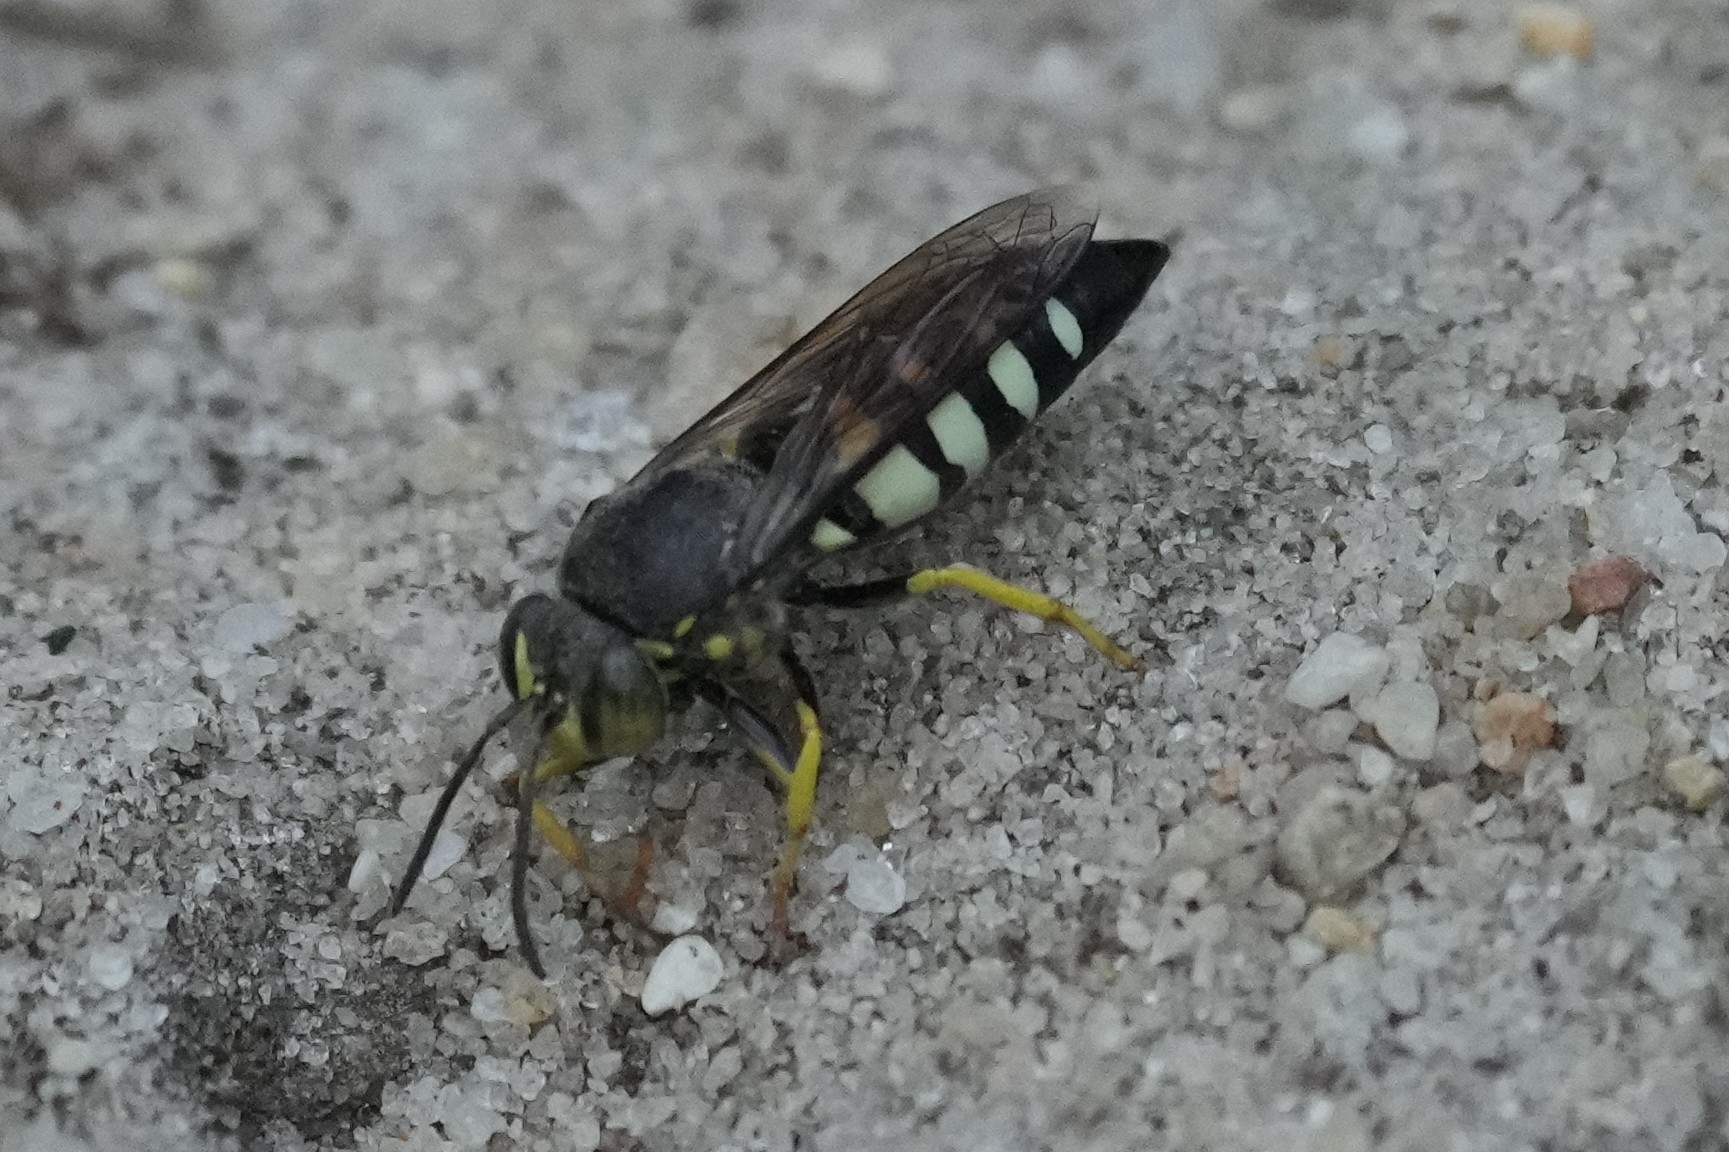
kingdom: Animalia
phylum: Arthropoda
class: Insecta
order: Hymenoptera
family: Crabronidae
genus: Bicyrtes
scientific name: Bicyrtes quadrifasciatus
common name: Four-banded stink bug hunter wasp
